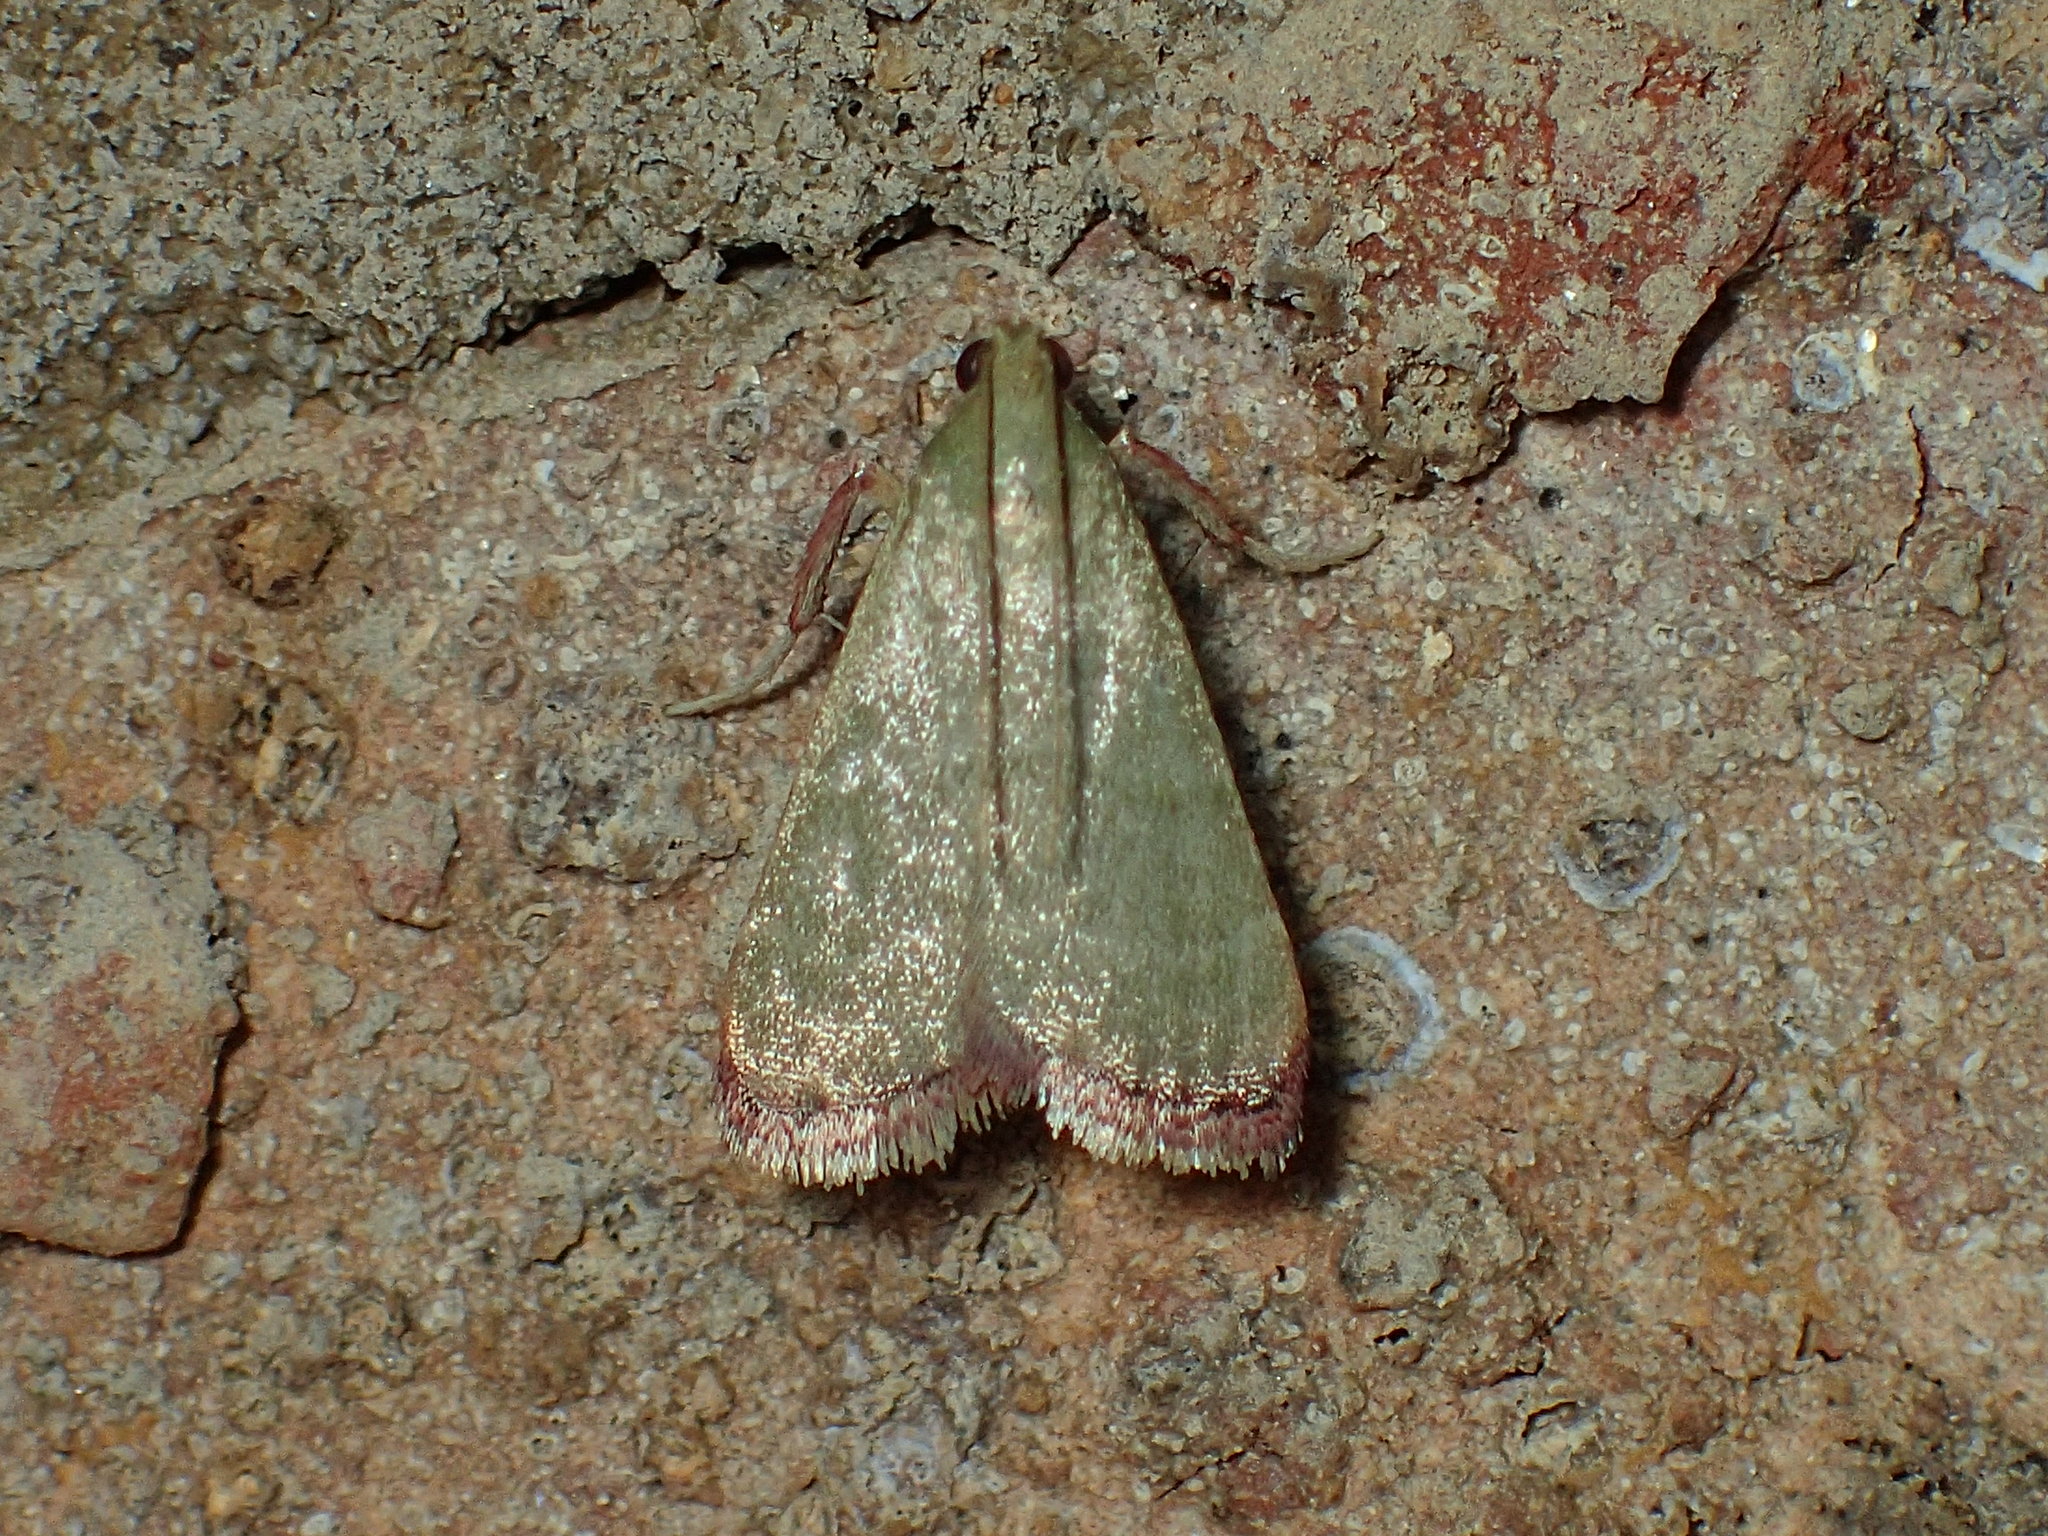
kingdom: Animalia
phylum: Arthropoda
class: Insecta
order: Lepidoptera
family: Pyralidae
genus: Arta
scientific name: Arta olivalis
